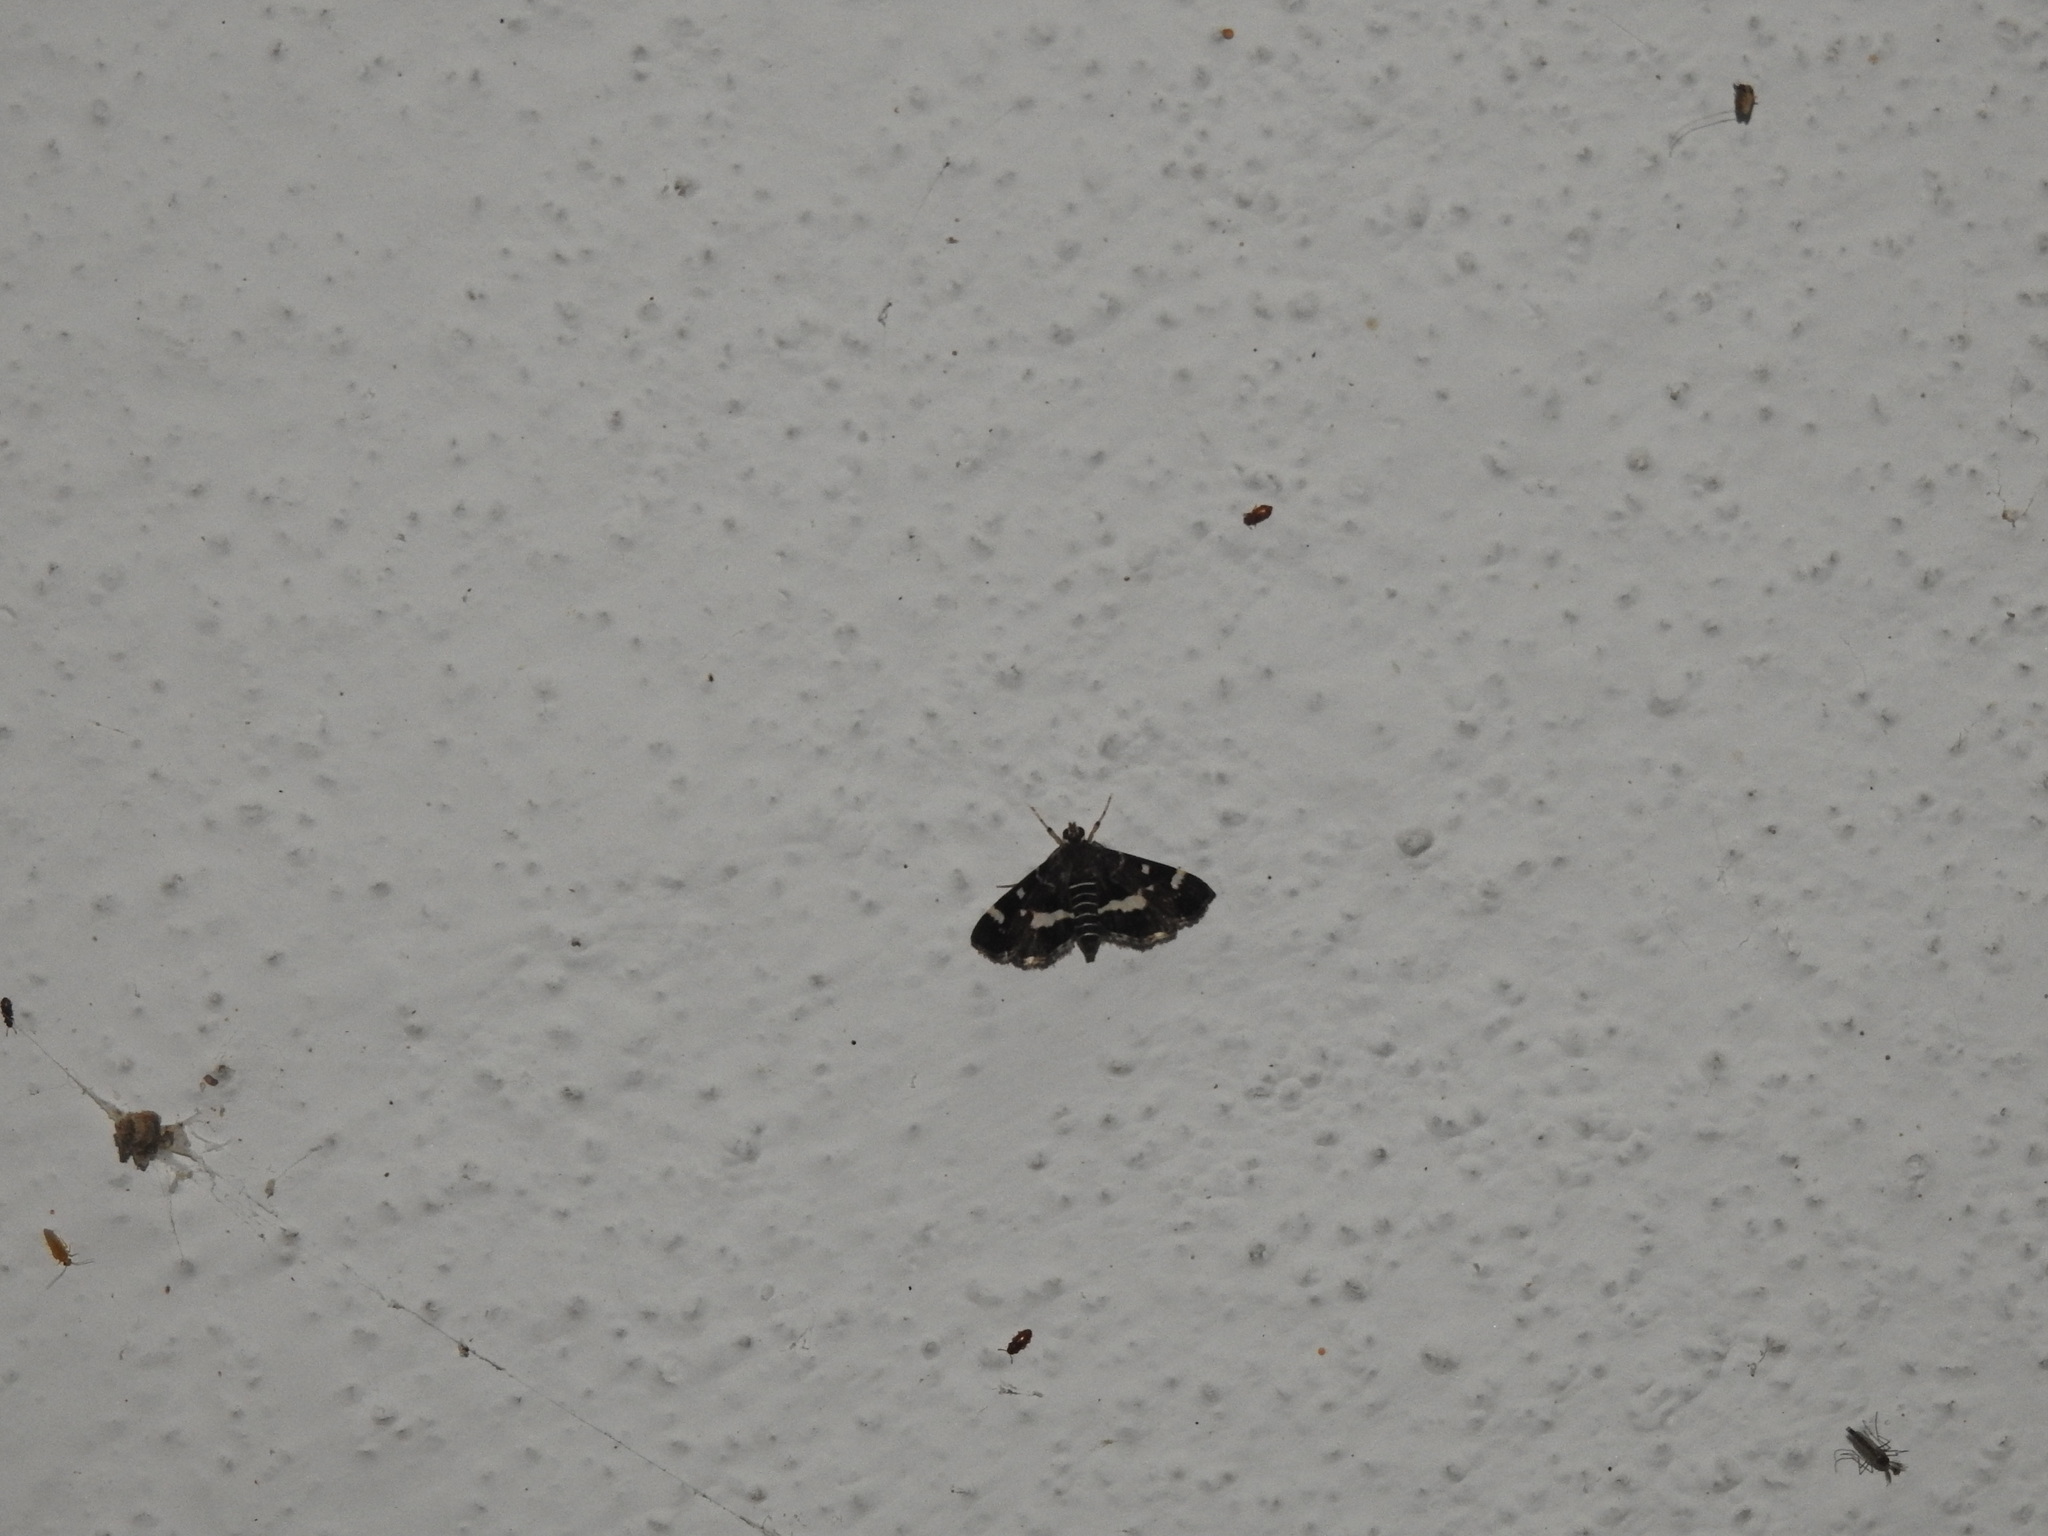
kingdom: Animalia
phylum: Arthropoda
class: Insecta
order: Lepidoptera
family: Crambidae
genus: Hymenia
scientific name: Hymenia perspectalis
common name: Spotted beet webworm
